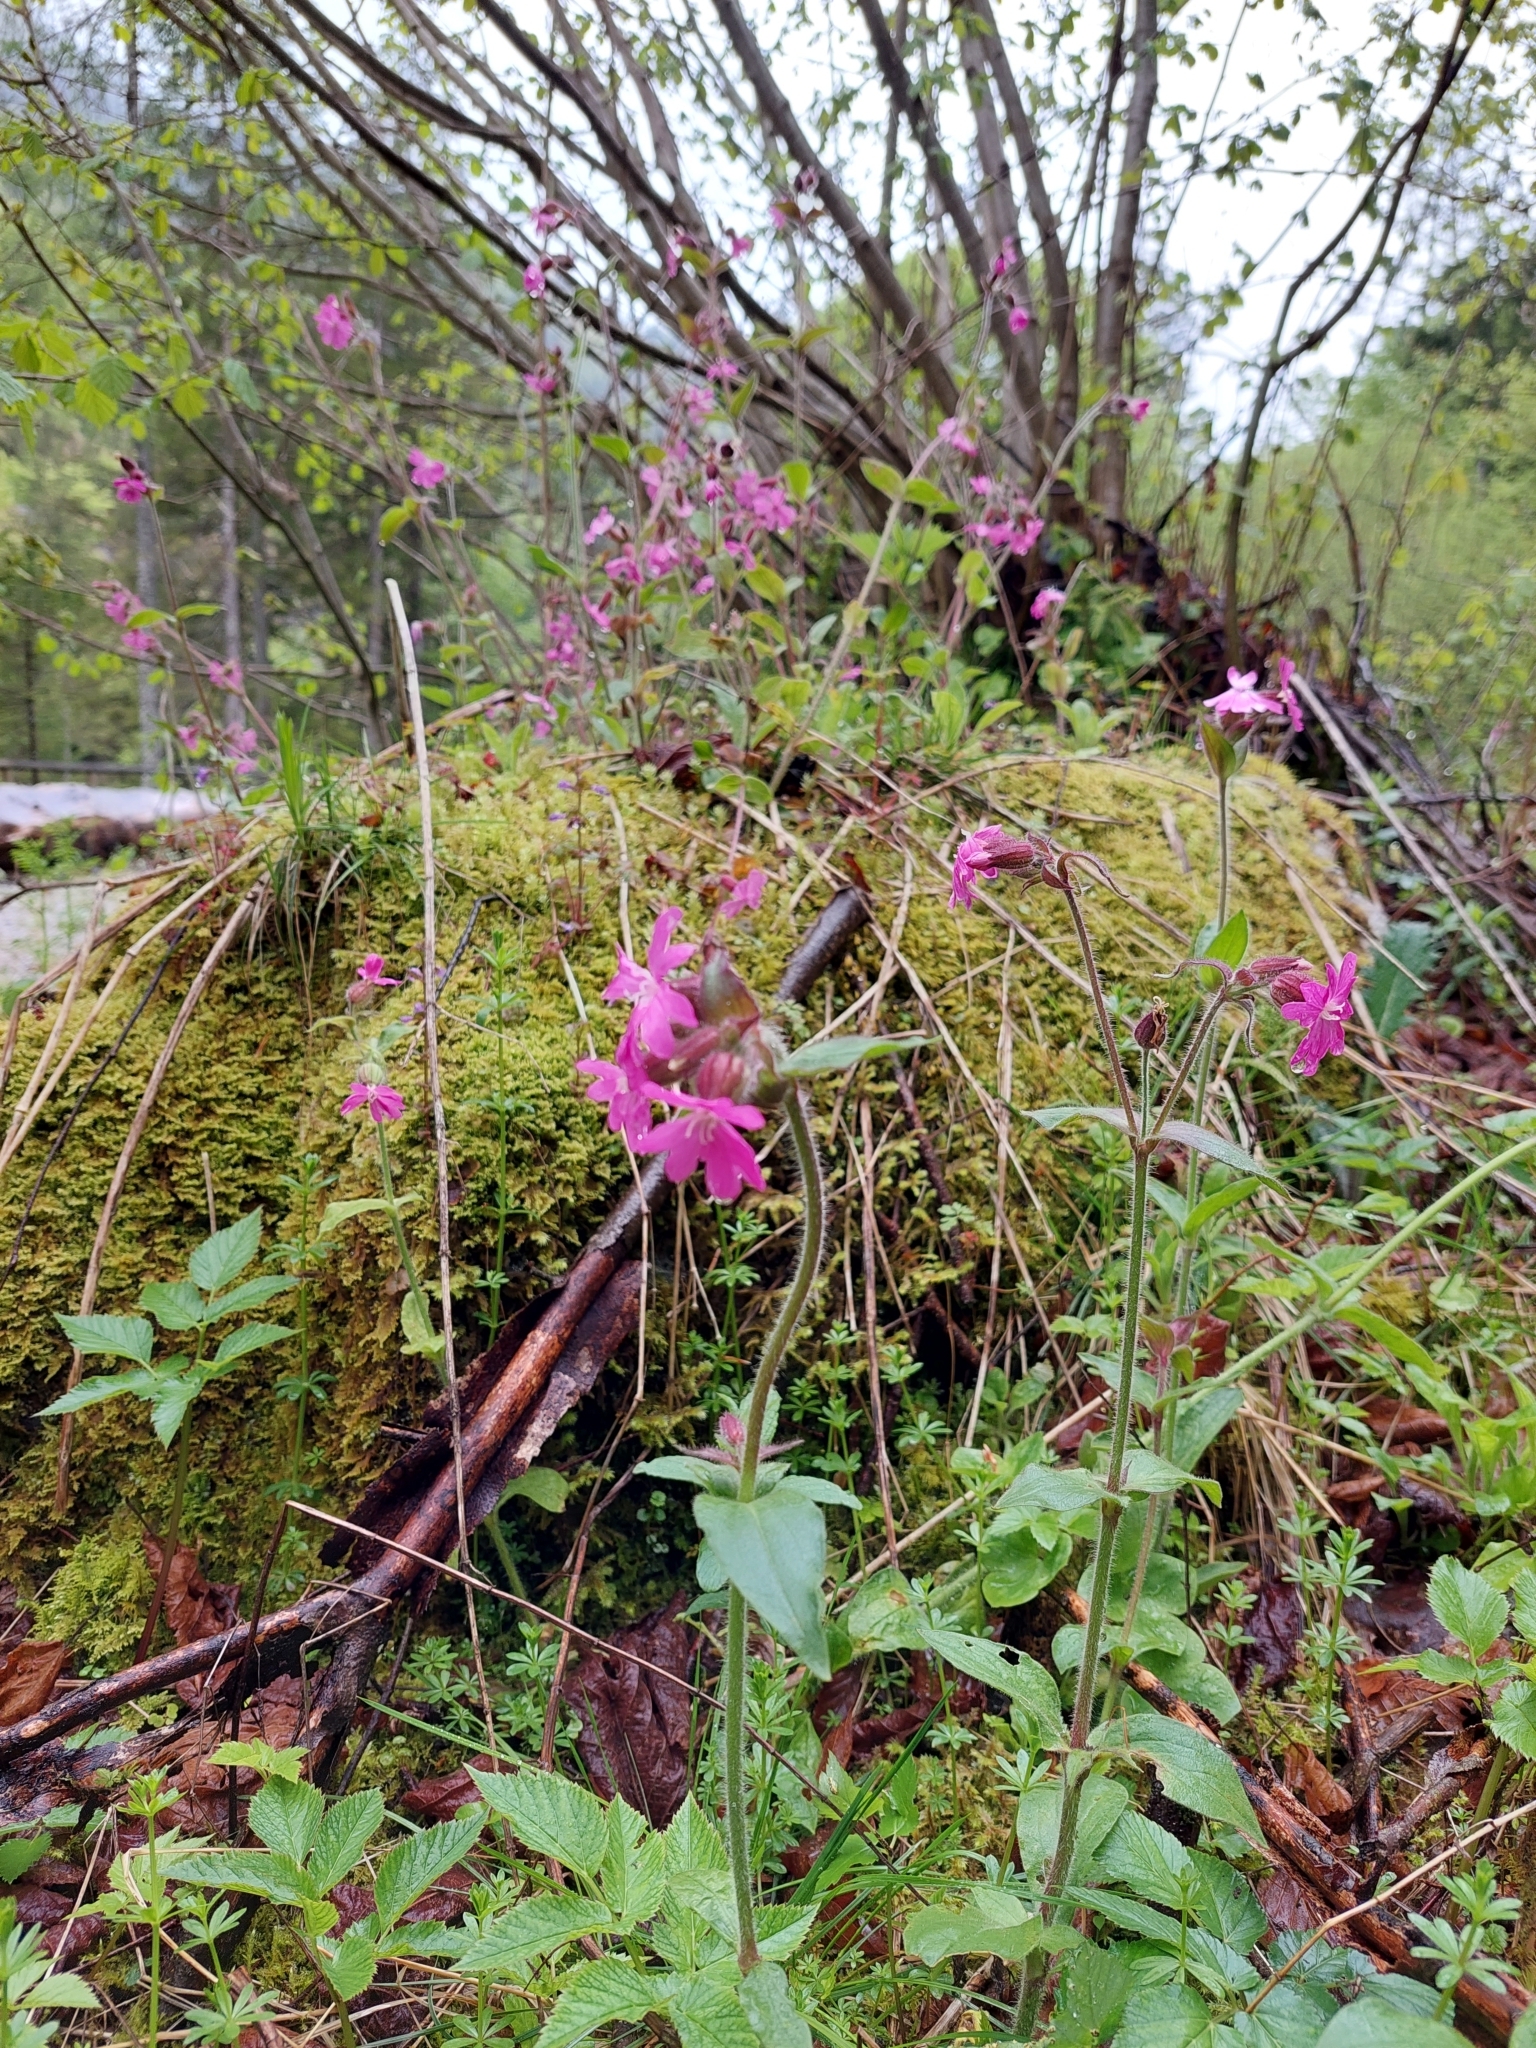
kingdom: Plantae
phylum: Tracheophyta
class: Magnoliopsida
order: Caryophyllales
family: Caryophyllaceae
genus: Silene
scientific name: Silene dioica
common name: Red campion
